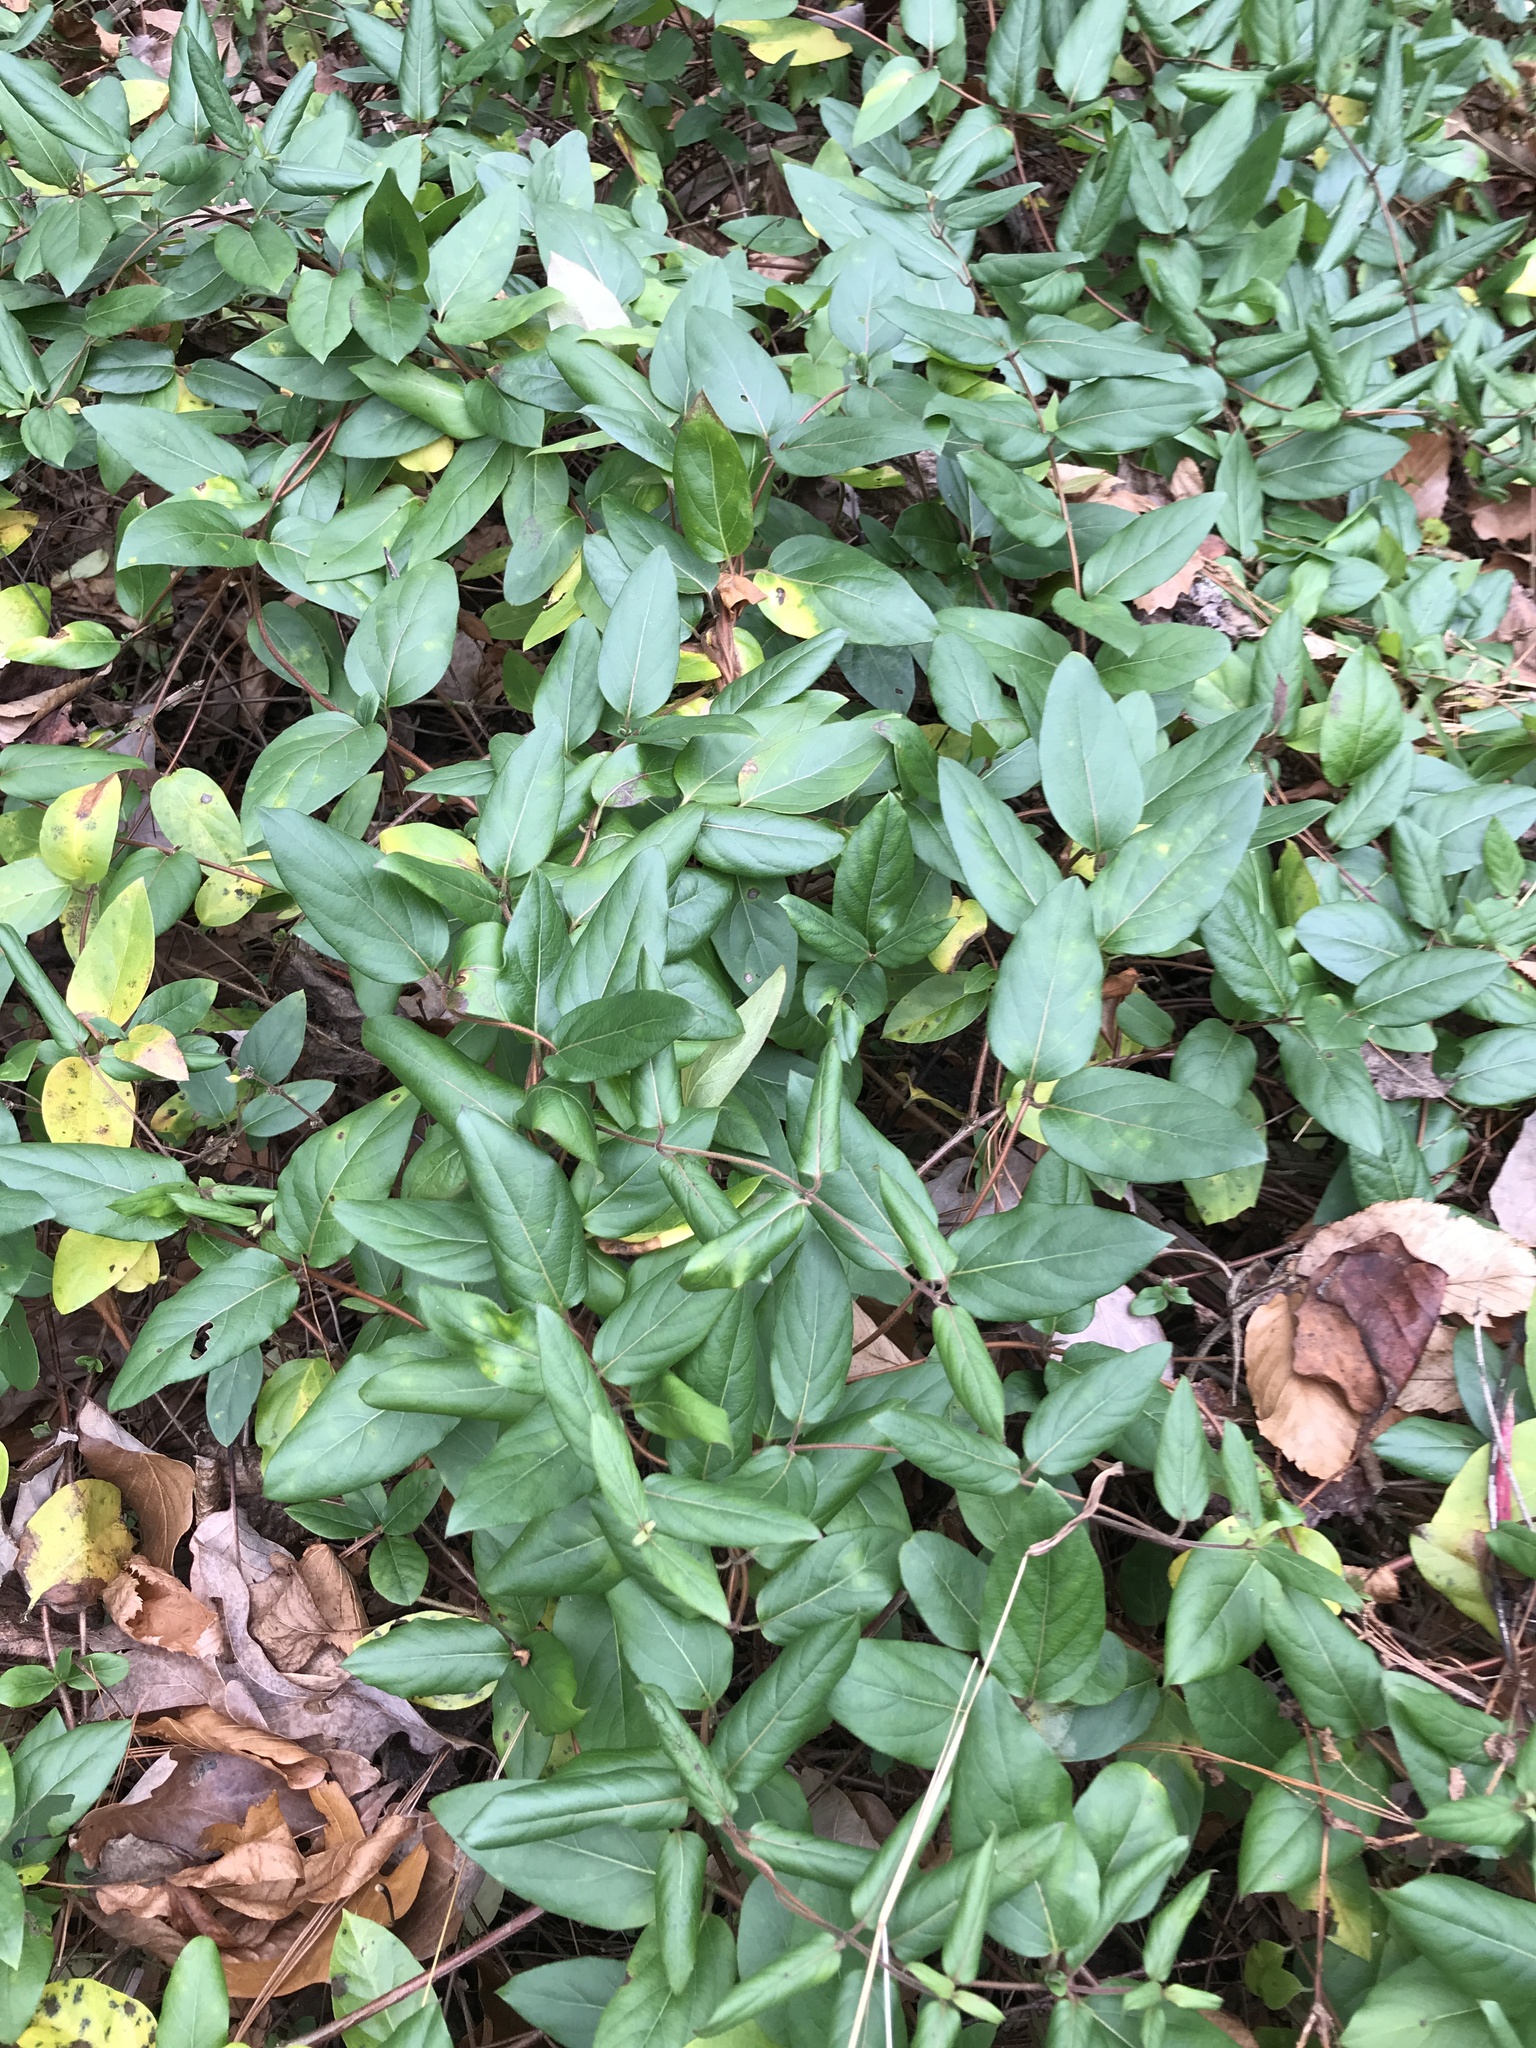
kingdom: Plantae
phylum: Tracheophyta
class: Magnoliopsida
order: Dipsacales
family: Caprifoliaceae
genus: Lonicera
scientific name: Lonicera japonica
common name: Japanese honeysuckle
